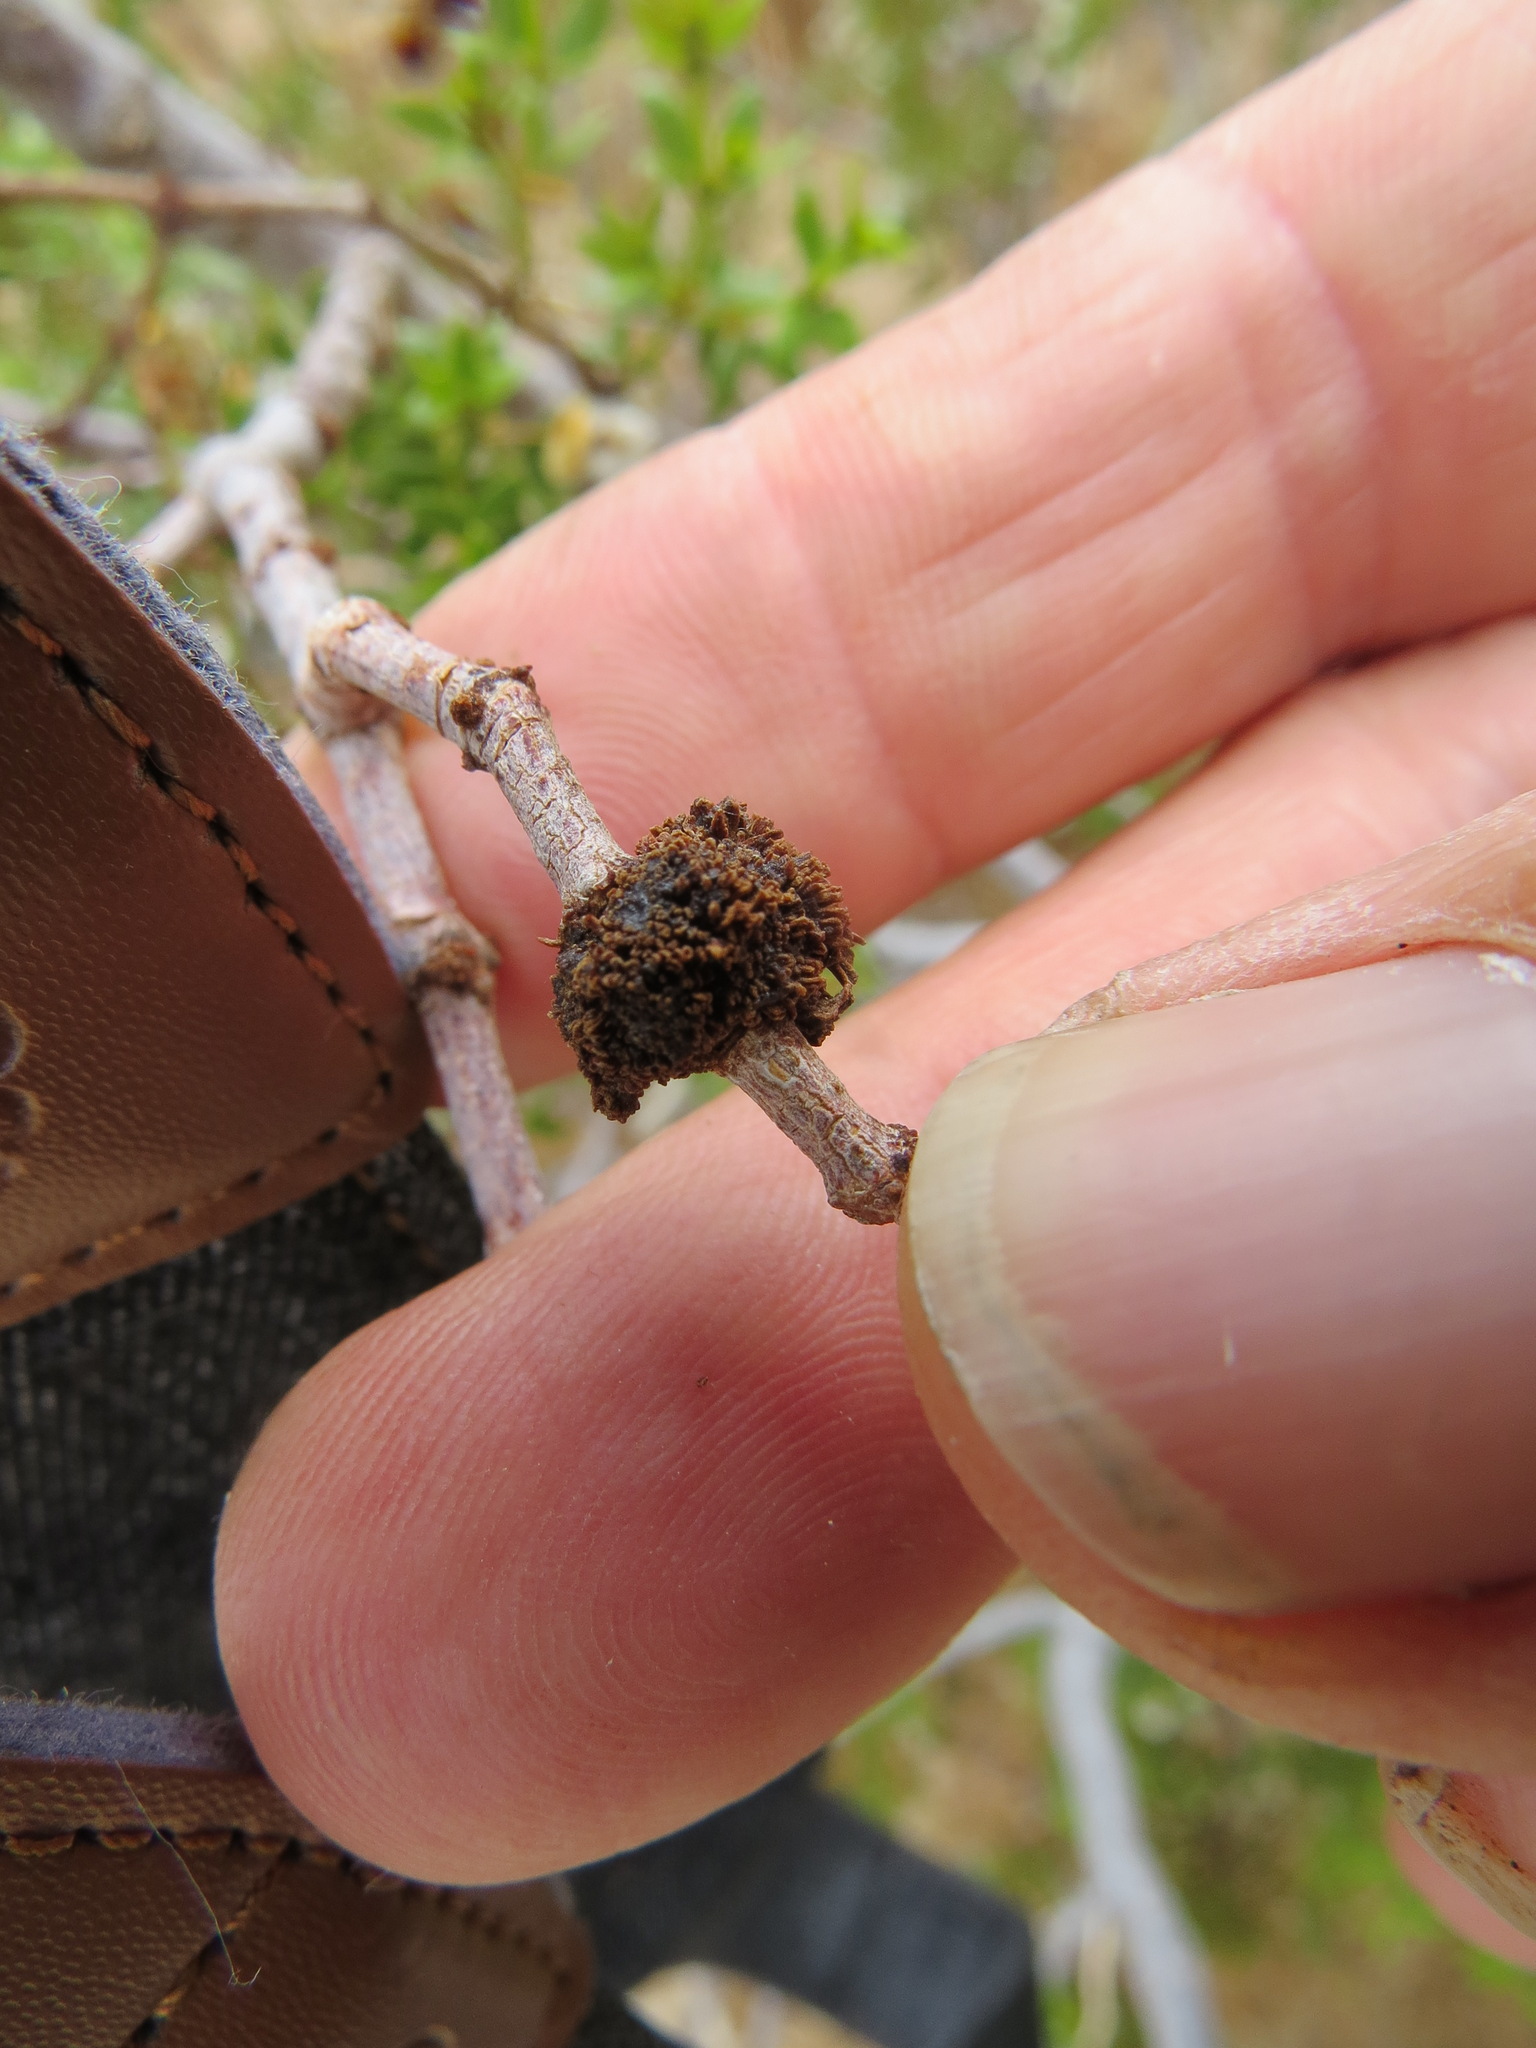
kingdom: Animalia
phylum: Arthropoda
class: Insecta
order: Diptera
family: Cecidomyiidae
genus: Asphondylia
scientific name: Asphondylia auripila
